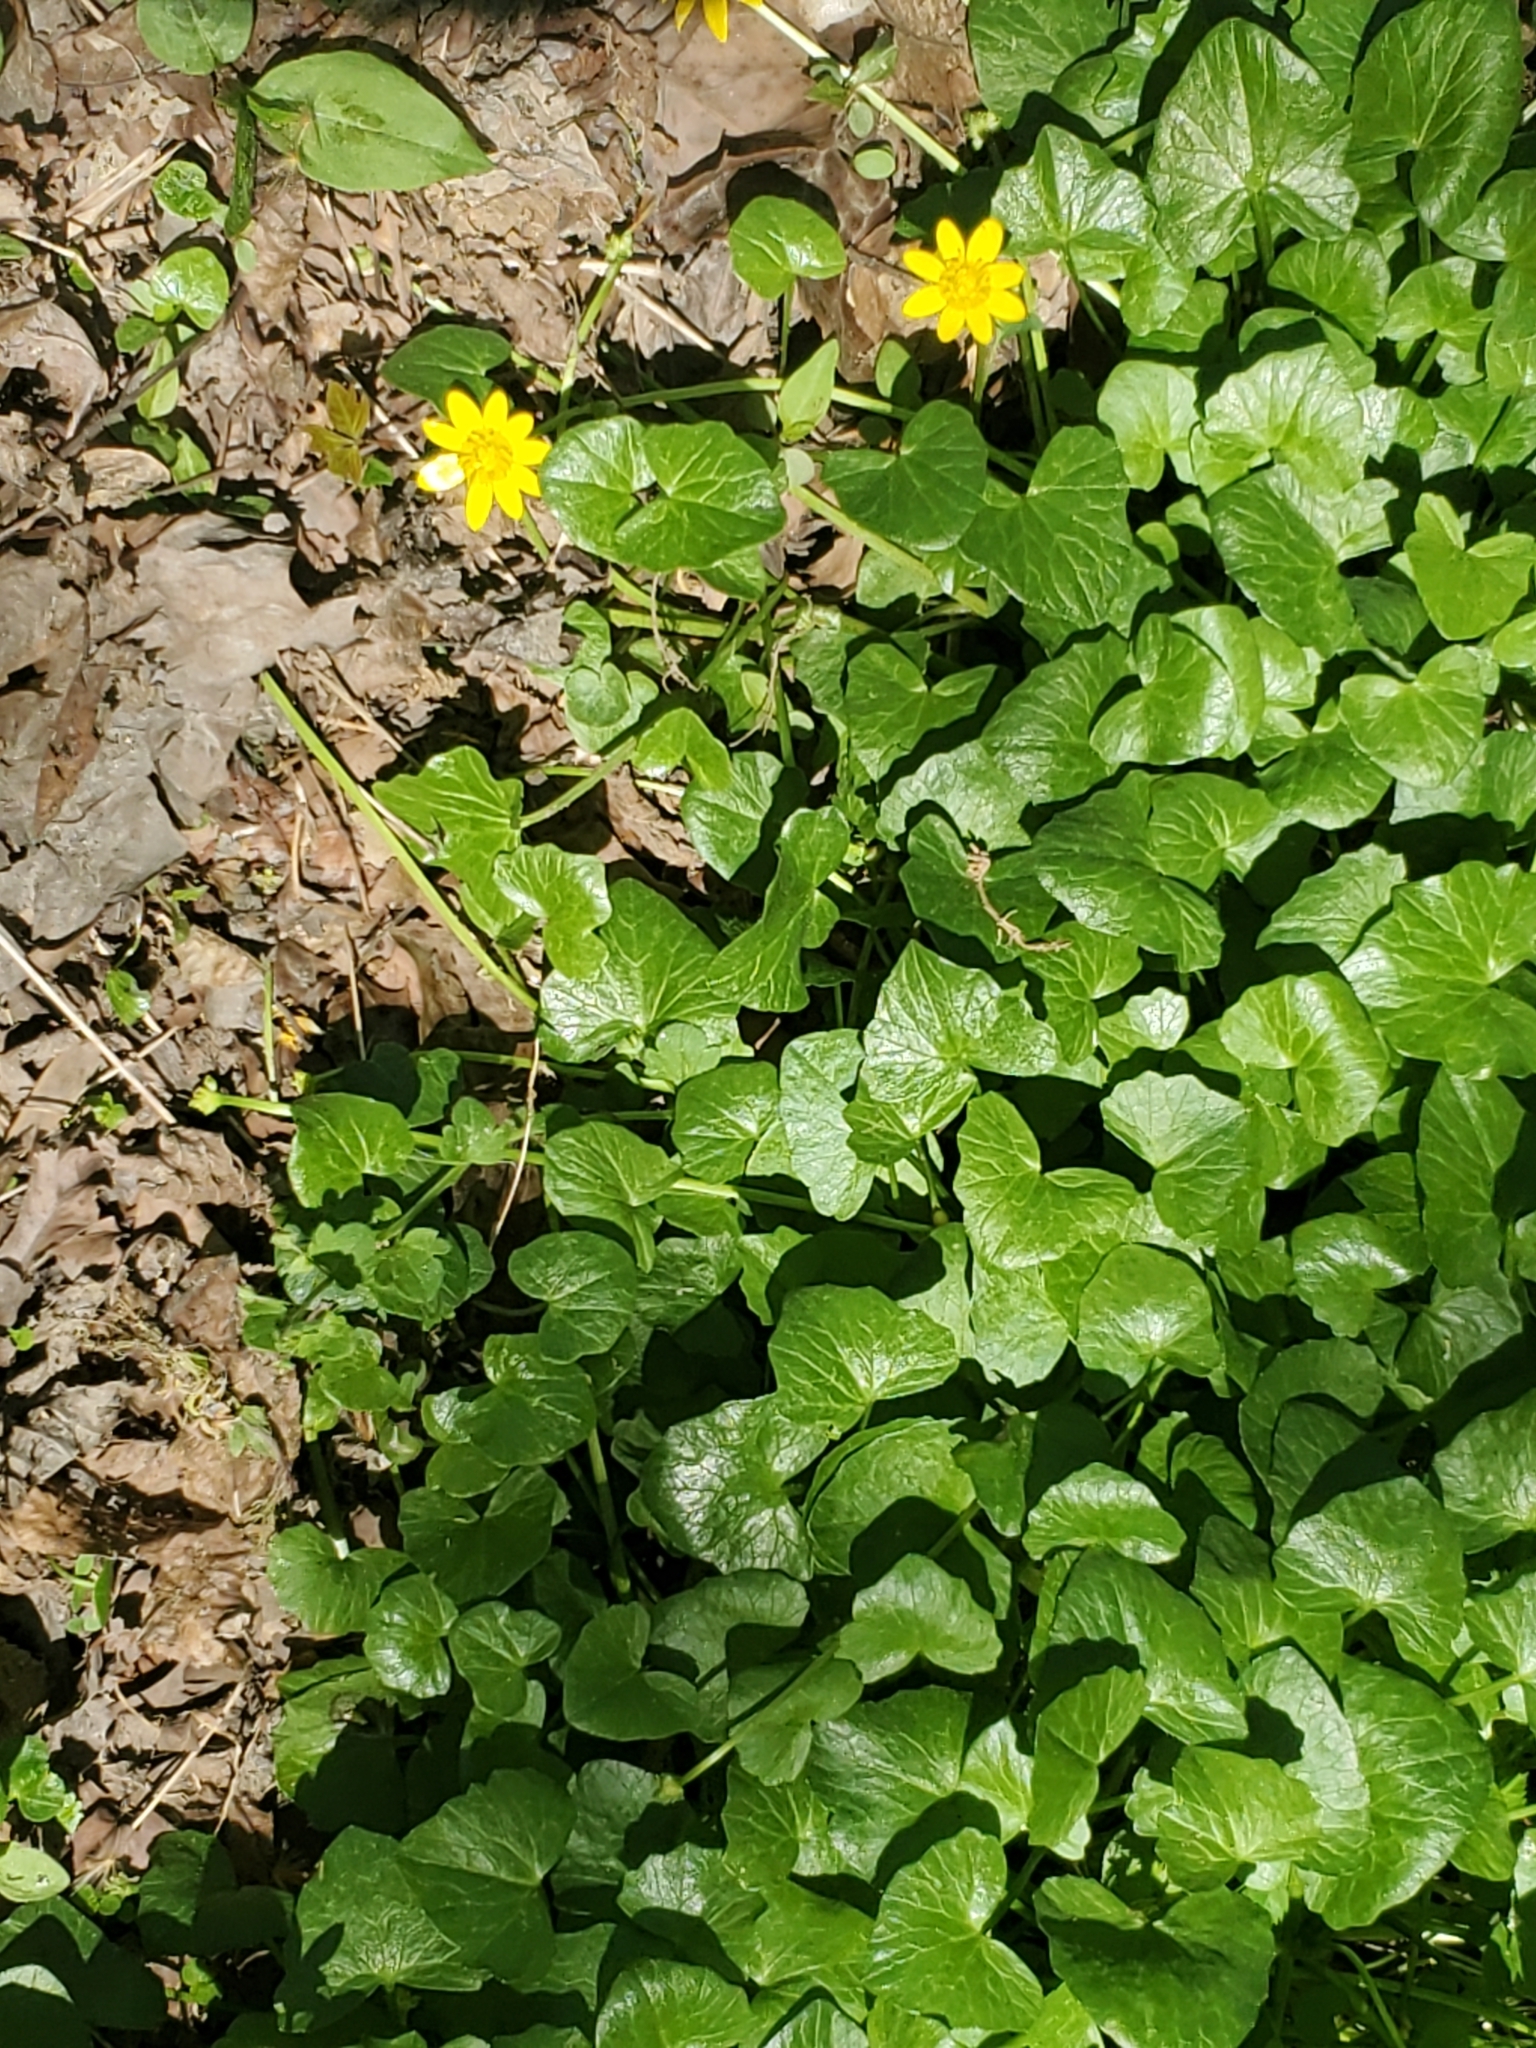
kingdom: Plantae
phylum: Tracheophyta
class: Magnoliopsida
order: Ranunculales
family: Ranunculaceae
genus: Ficaria
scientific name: Ficaria verna
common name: Lesser celandine
